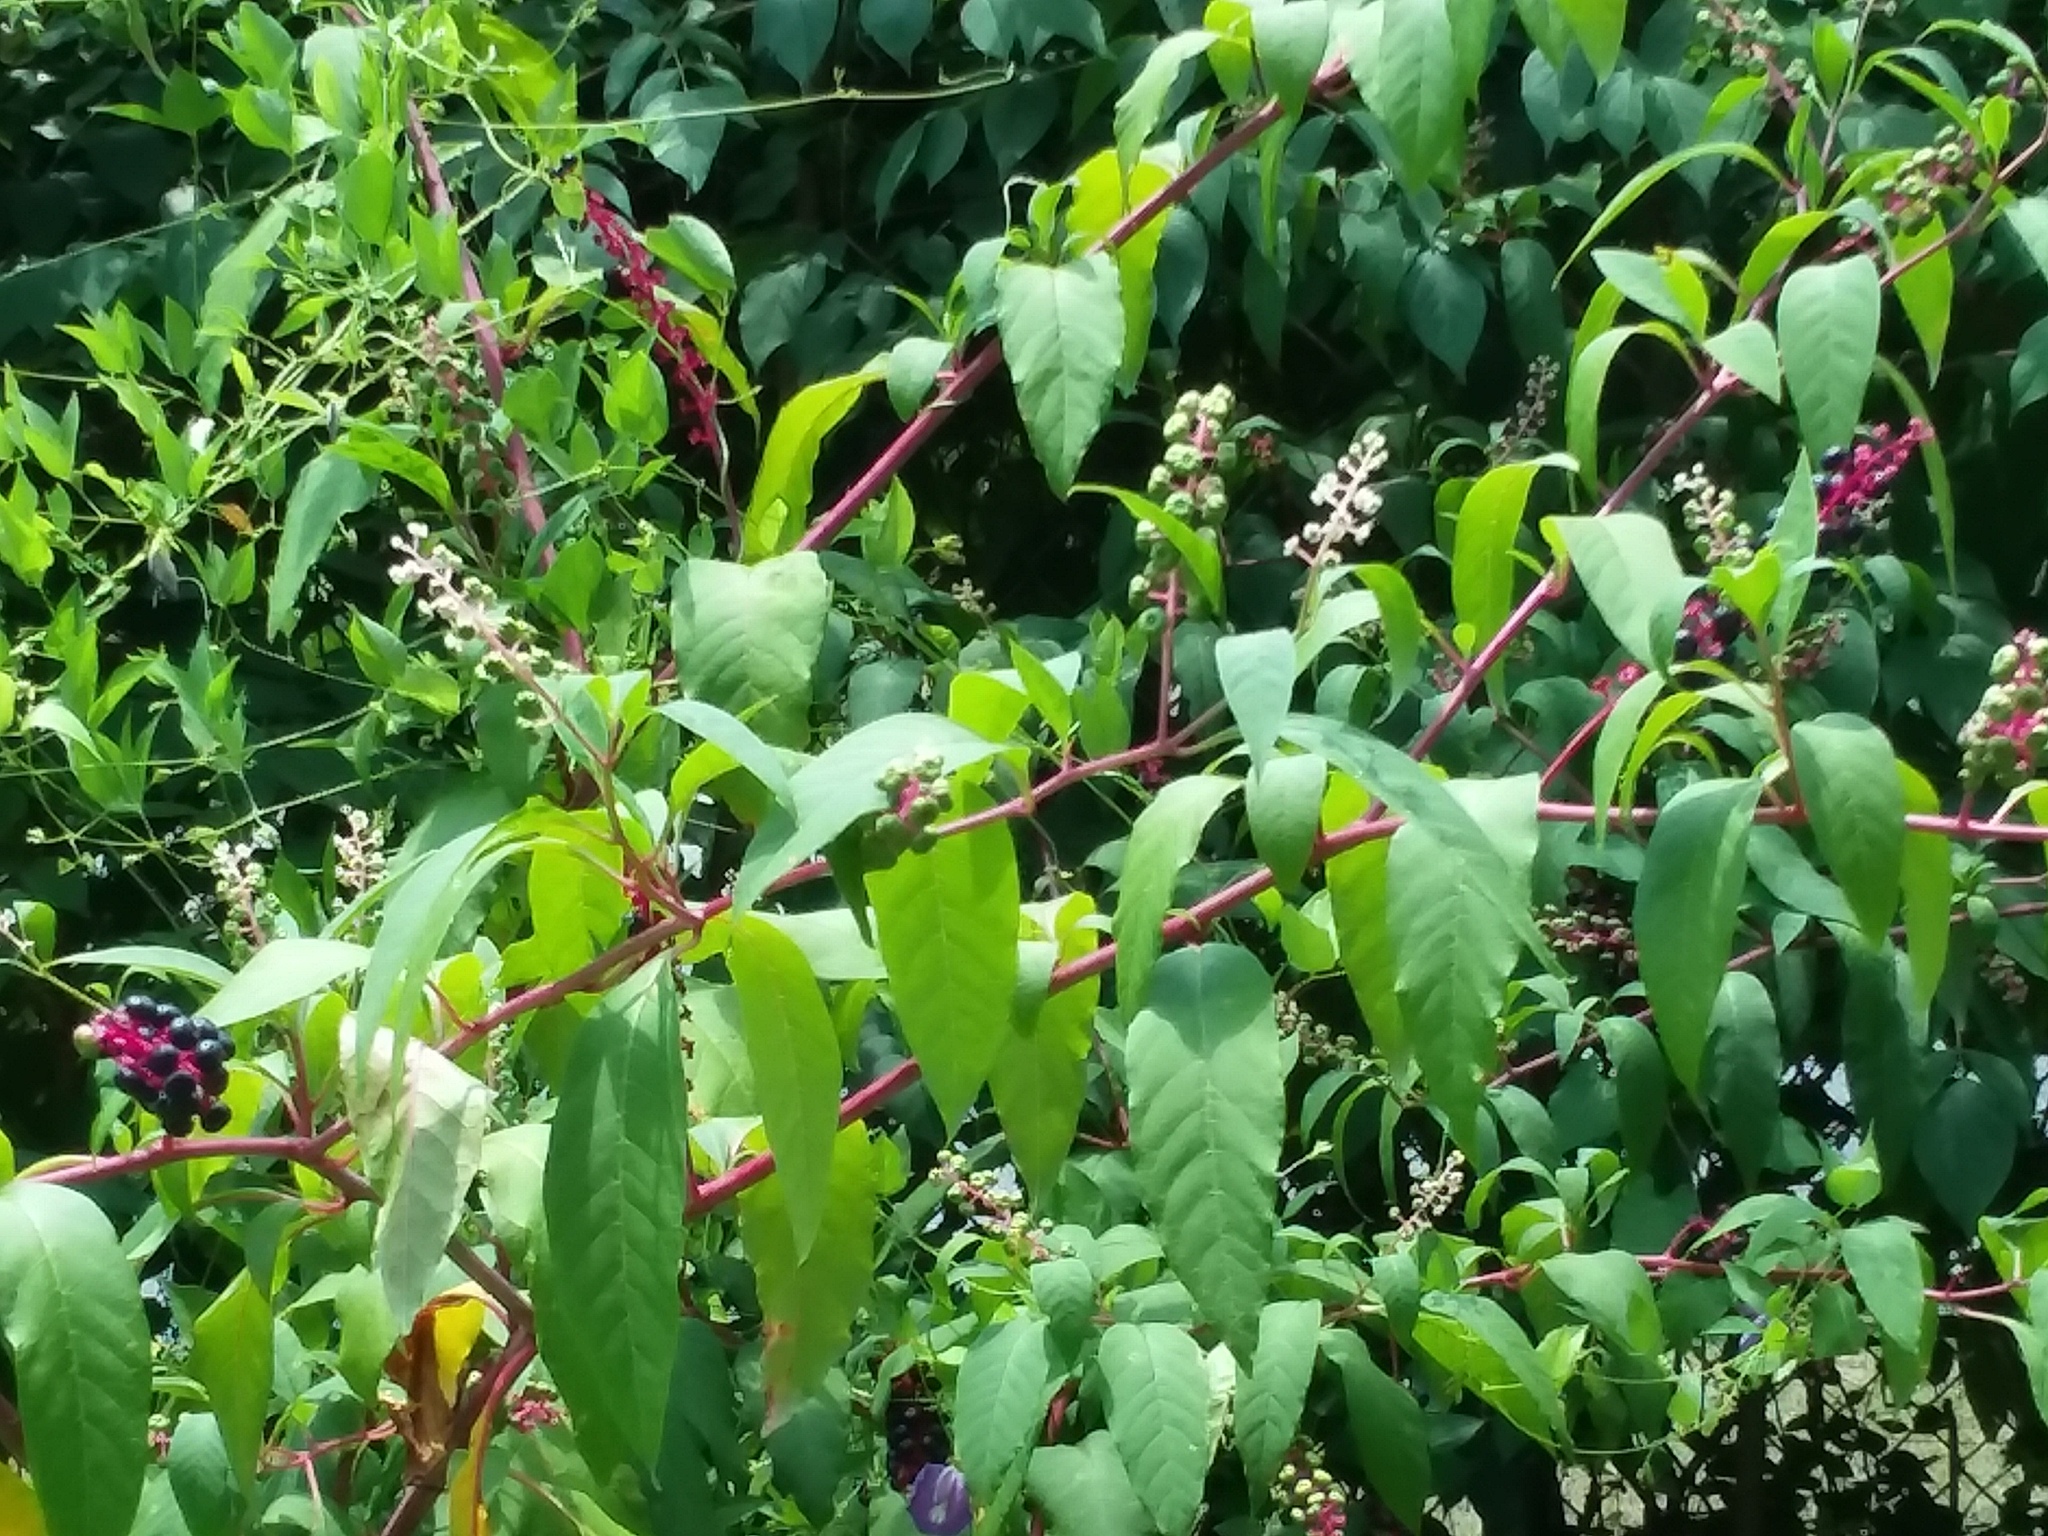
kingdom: Plantae
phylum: Tracheophyta
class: Magnoliopsida
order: Caryophyllales
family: Phytolaccaceae
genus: Phytolacca
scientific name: Phytolacca americana
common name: American pokeweed
